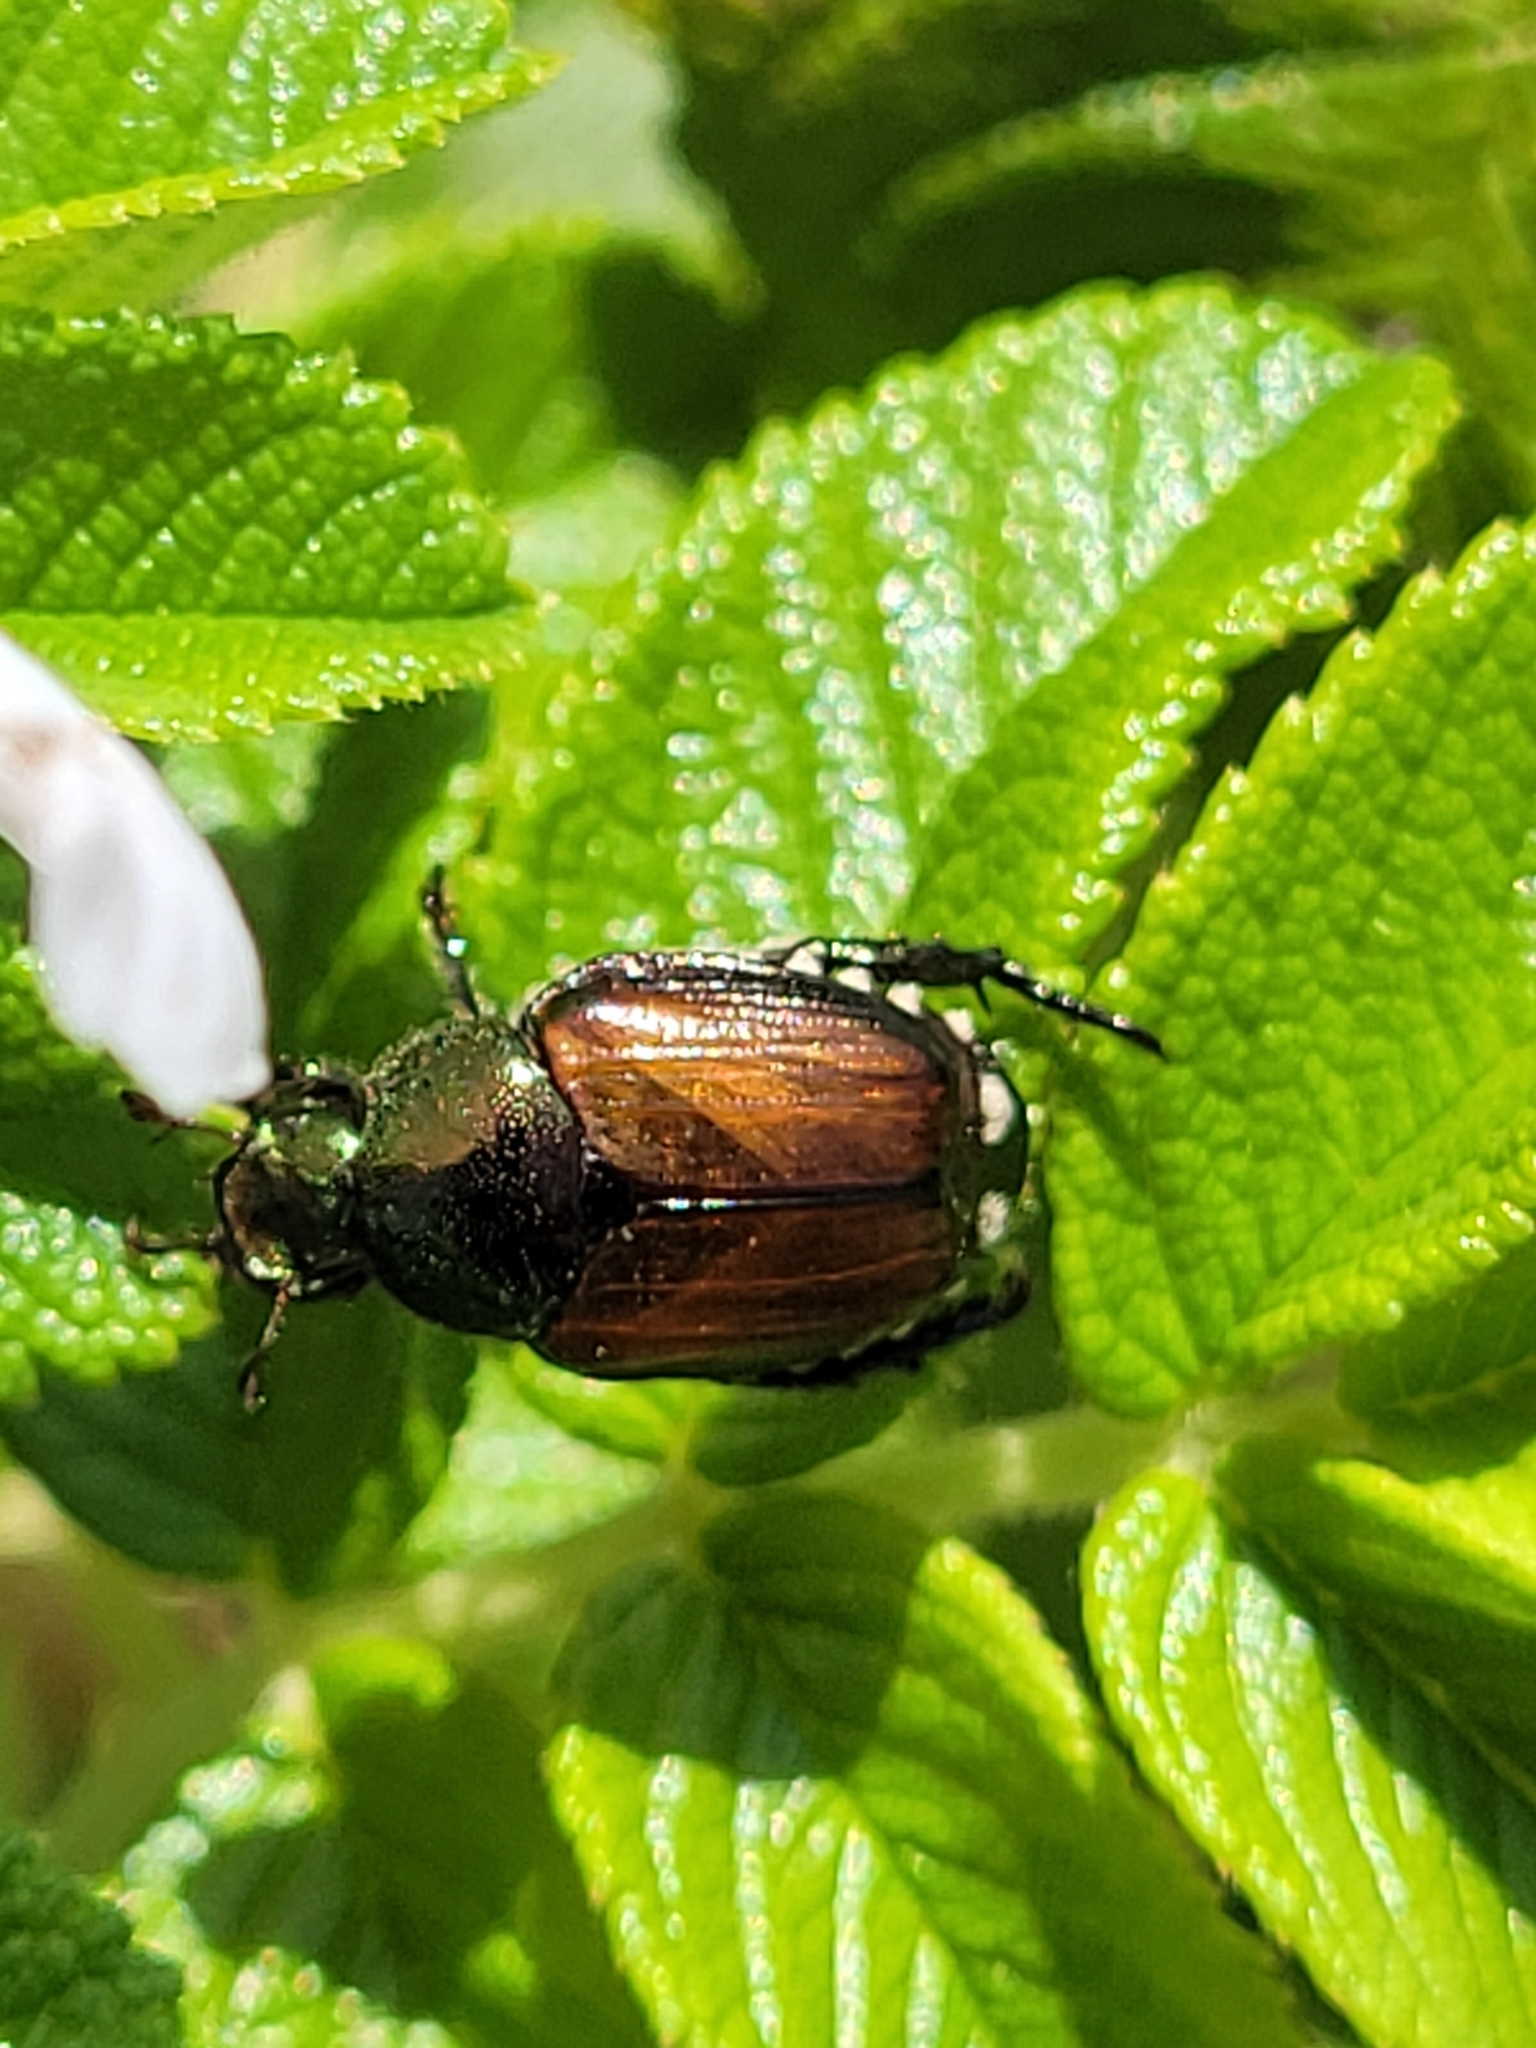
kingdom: Animalia
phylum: Arthropoda
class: Insecta
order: Coleoptera
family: Scarabaeidae
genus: Popillia
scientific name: Popillia japonica
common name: Japanese beetle
